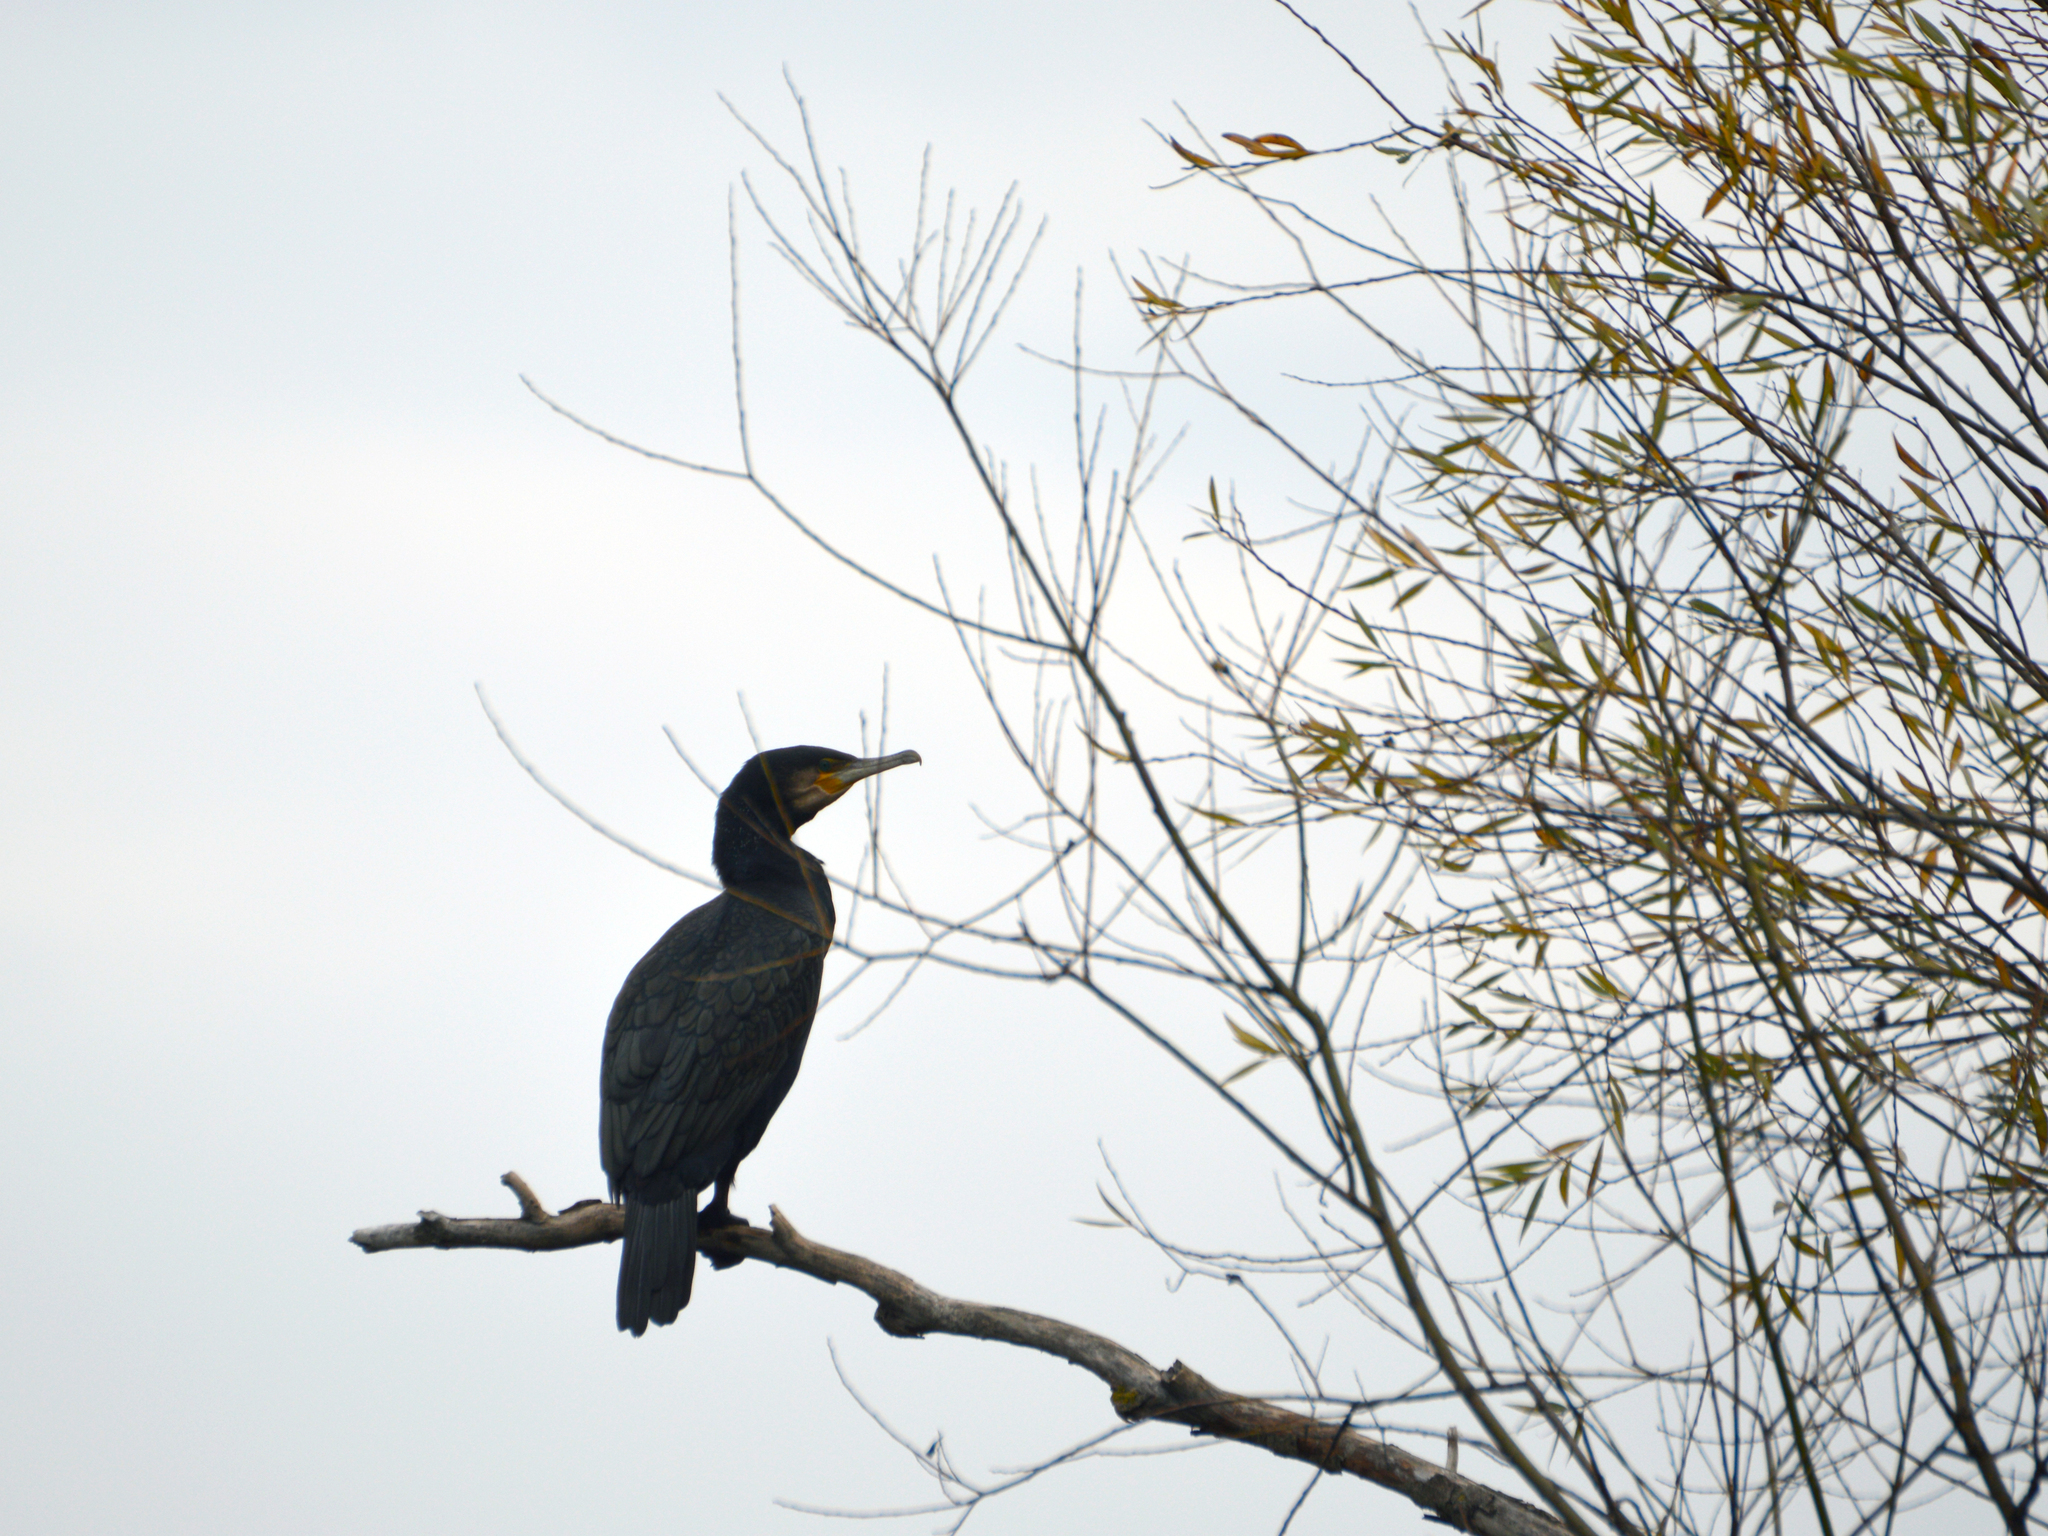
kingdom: Animalia
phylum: Chordata
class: Aves
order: Suliformes
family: Phalacrocoracidae
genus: Phalacrocorax
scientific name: Phalacrocorax carbo
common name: Great cormorant
